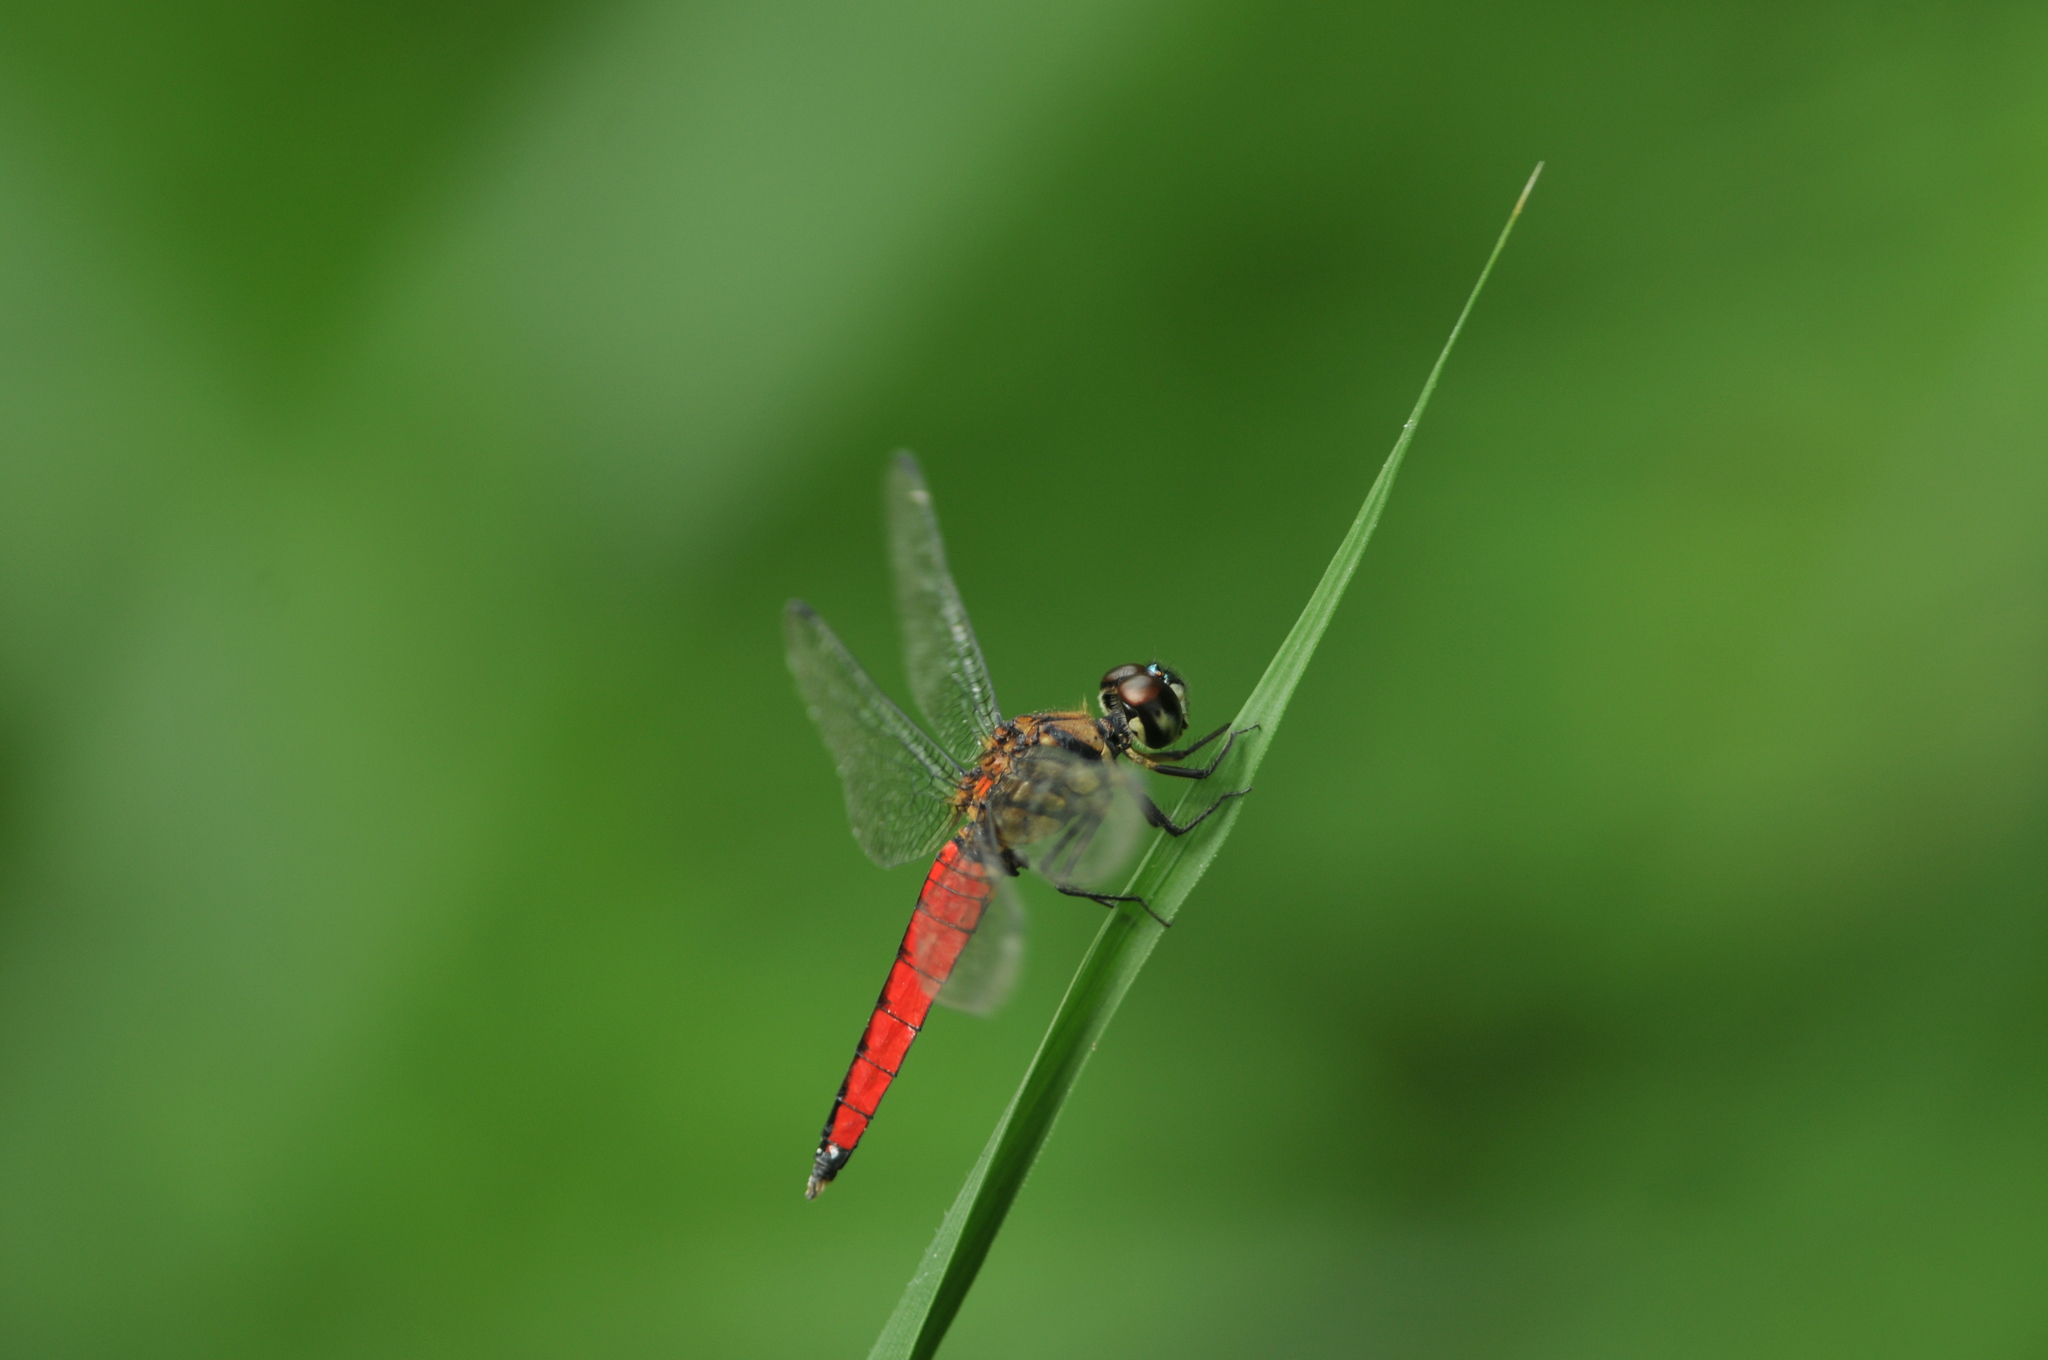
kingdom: Animalia
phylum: Arthropoda
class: Insecta
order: Odonata
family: Libellulidae
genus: Lyriothemis
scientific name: Lyriothemis elegantissima
